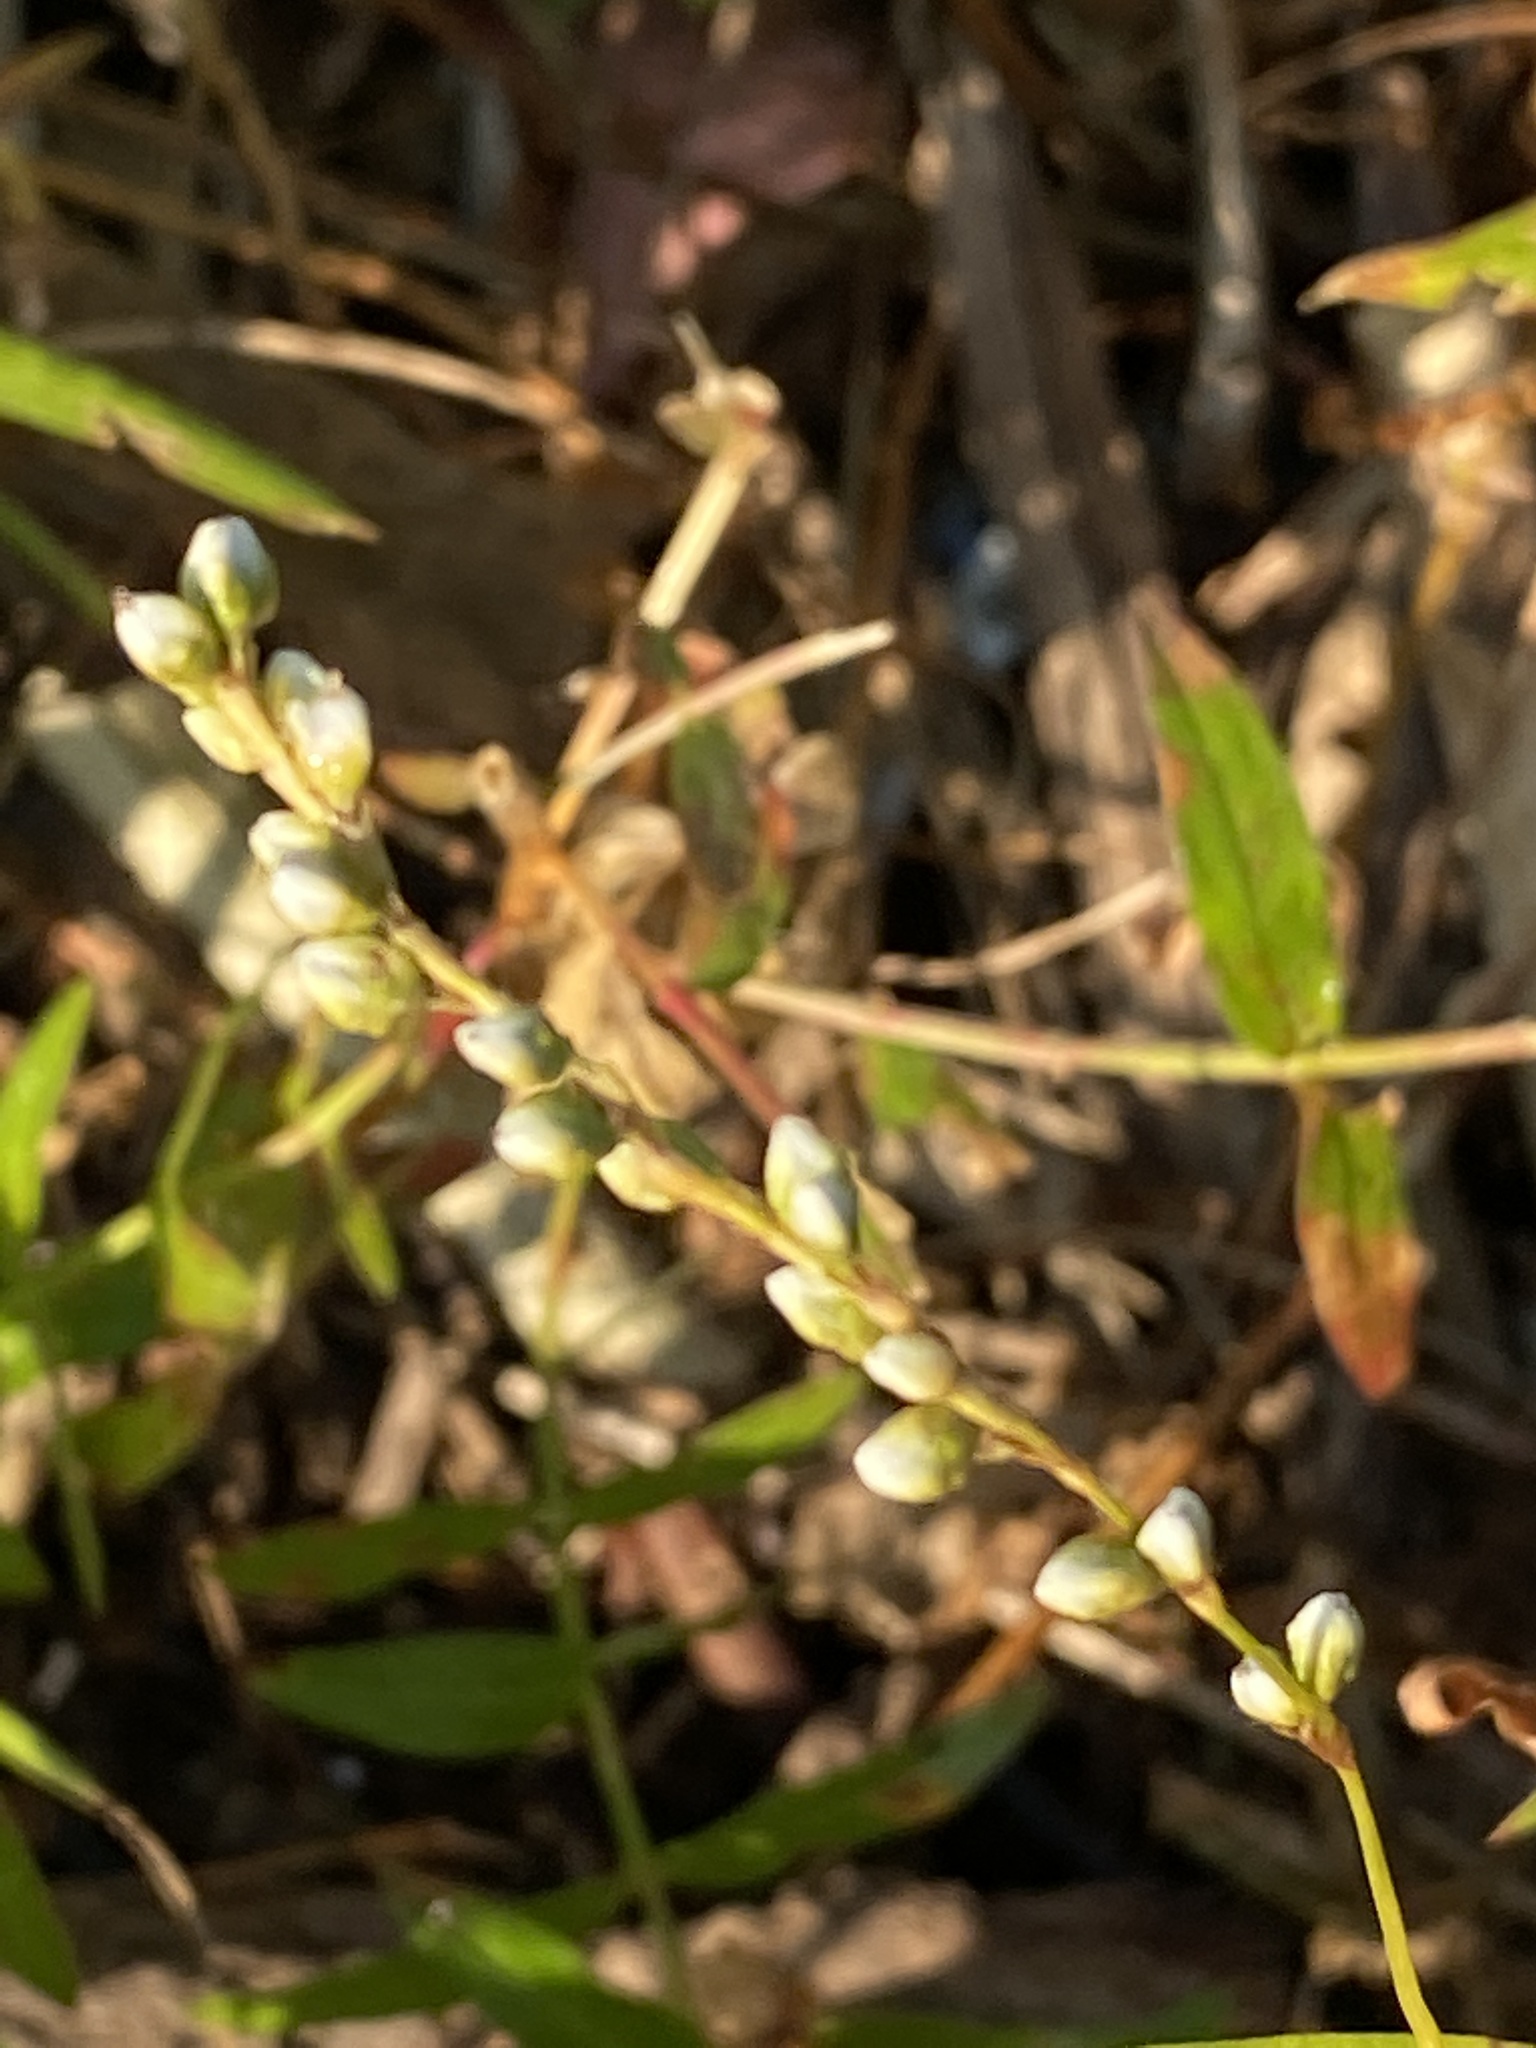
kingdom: Plantae
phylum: Tracheophyta
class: Magnoliopsida
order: Caryophyllales
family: Polygonaceae
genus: Persicaria
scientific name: Persicaria punctata
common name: Dotted smartweed
